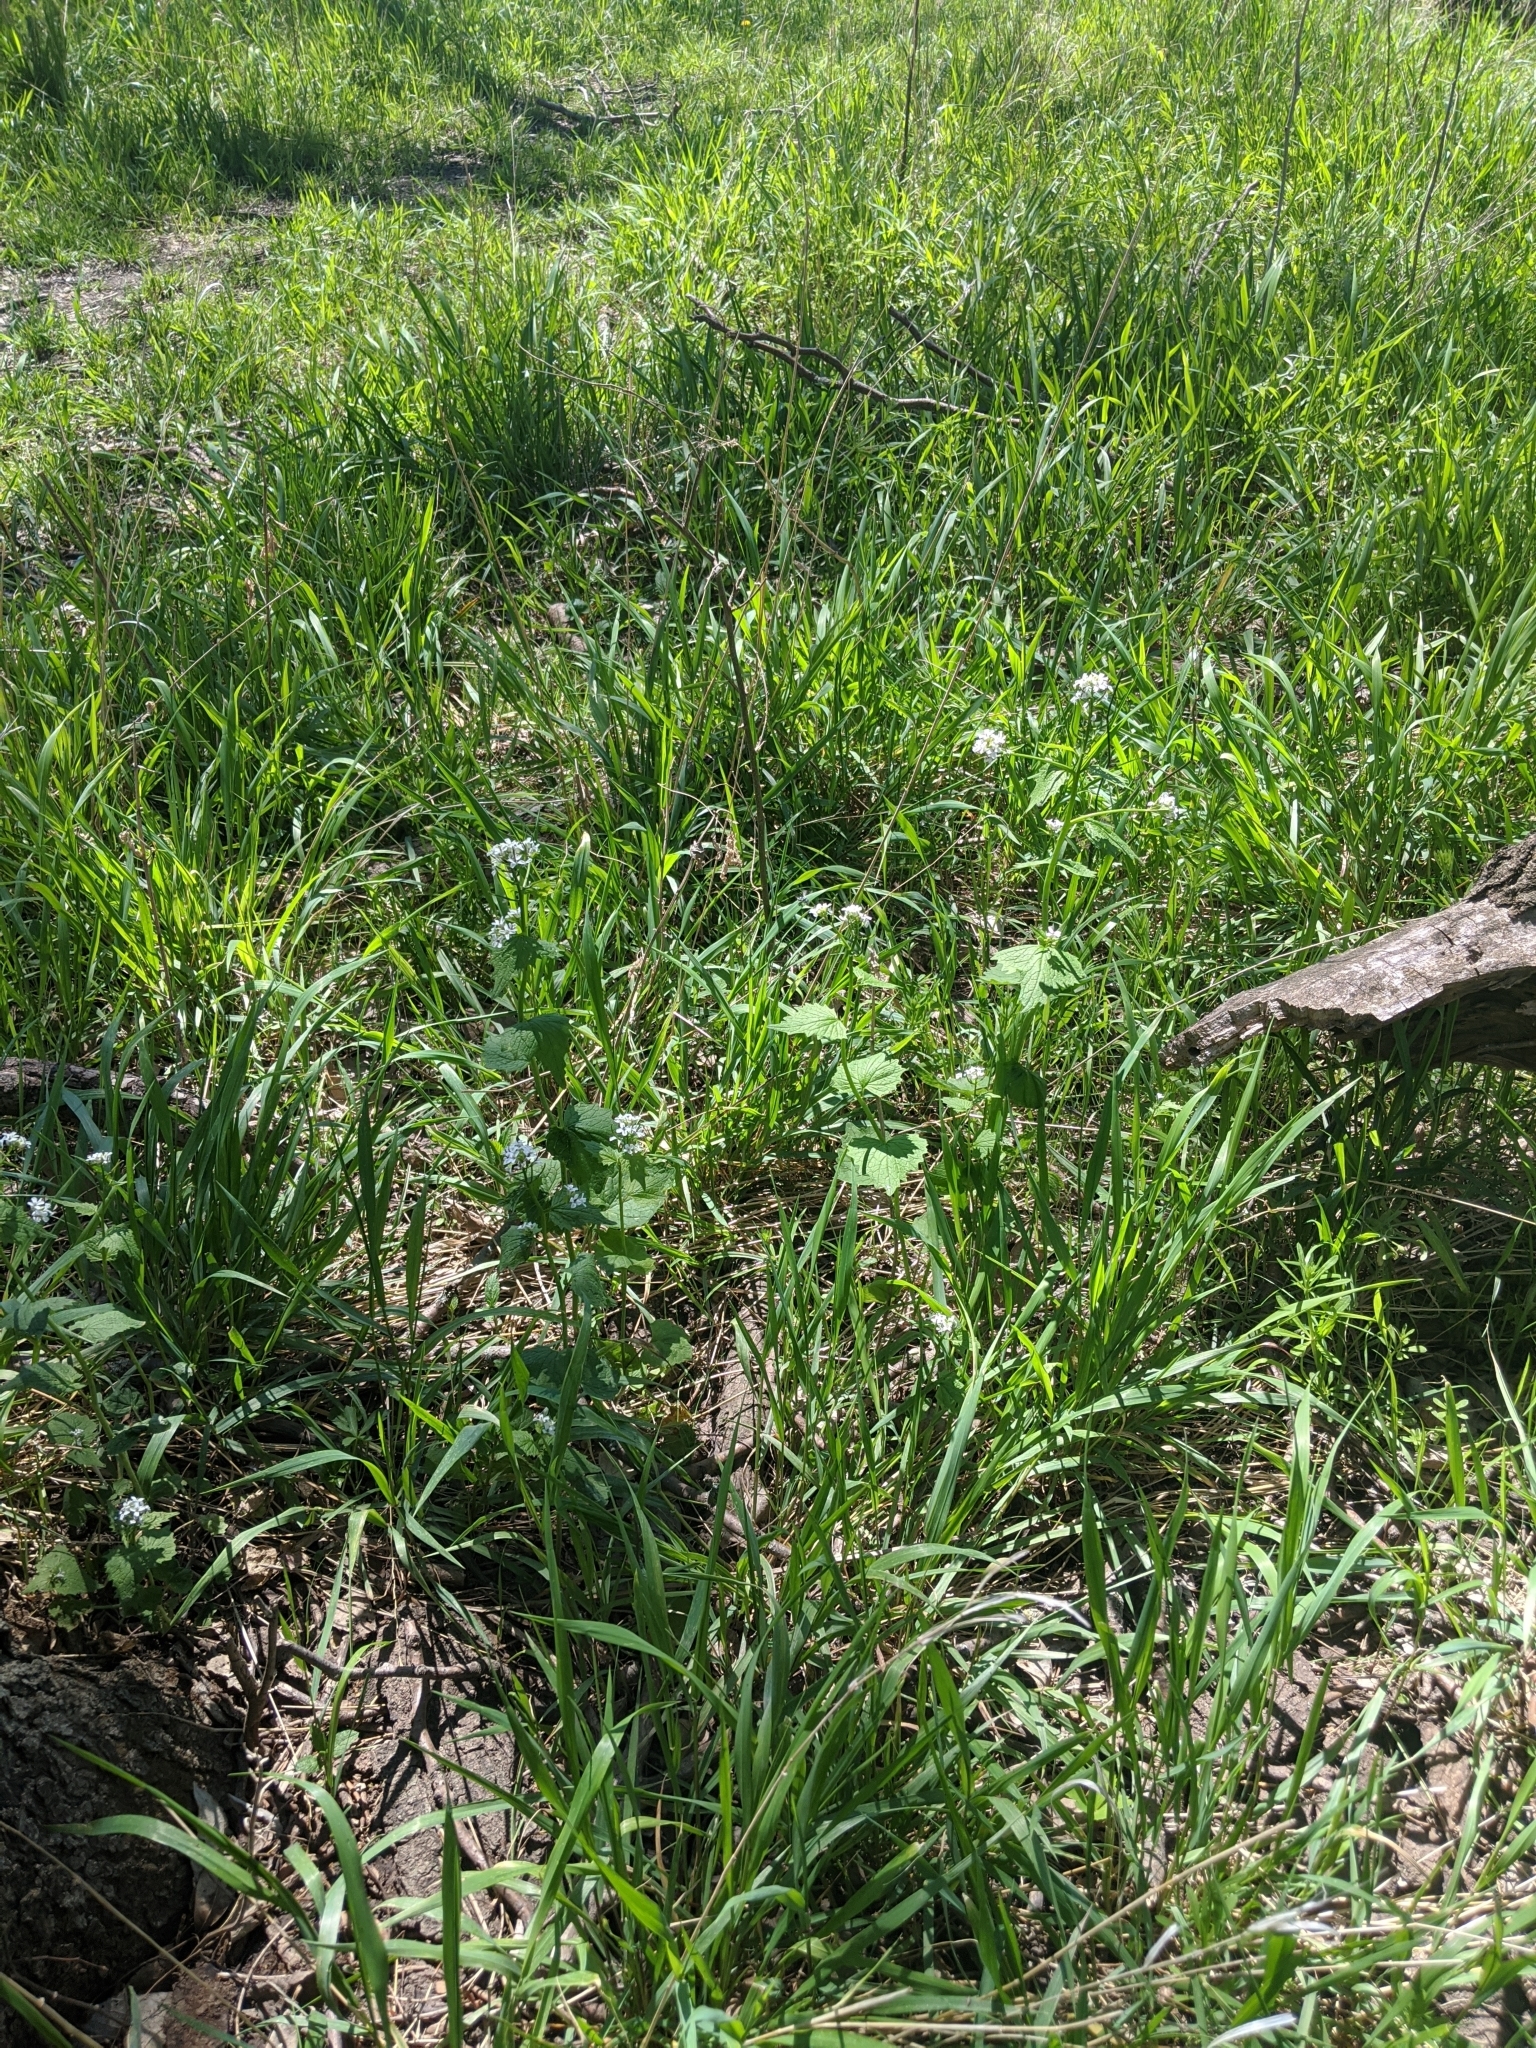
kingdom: Plantae
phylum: Tracheophyta
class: Magnoliopsida
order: Brassicales
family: Brassicaceae
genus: Alliaria
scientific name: Alliaria petiolata
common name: Garlic mustard
